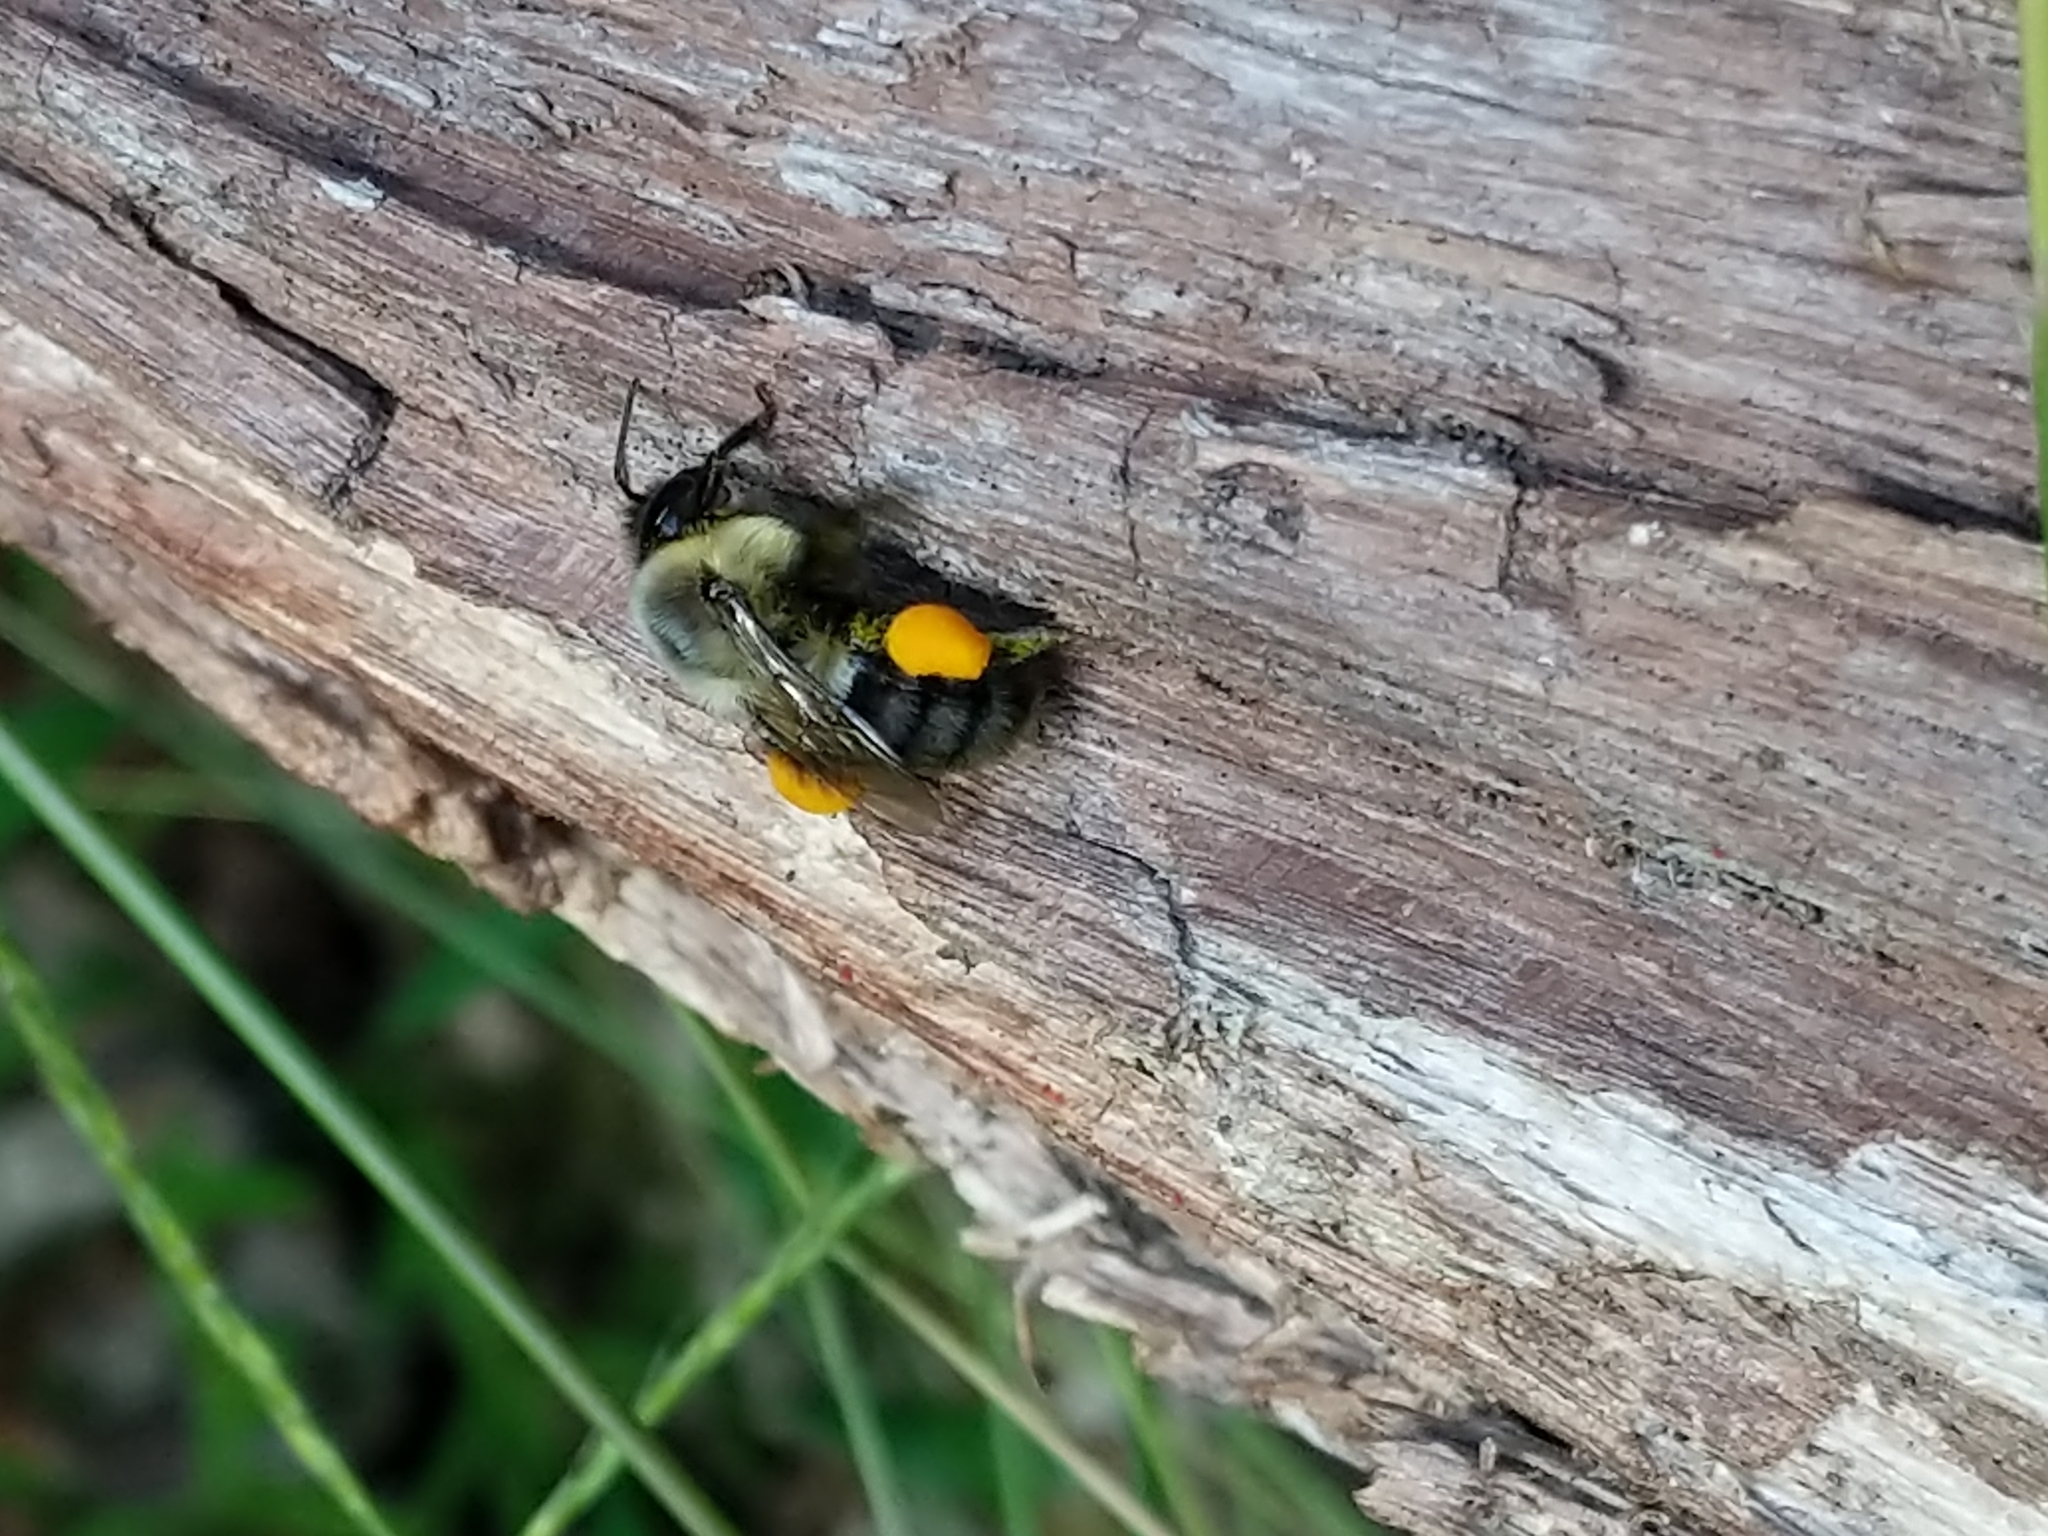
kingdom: Animalia
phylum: Arthropoda
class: Insecta
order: Hymenoptera
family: Apidae
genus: Bombus
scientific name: Bombus impatiens
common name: Common eastern bumble bee
